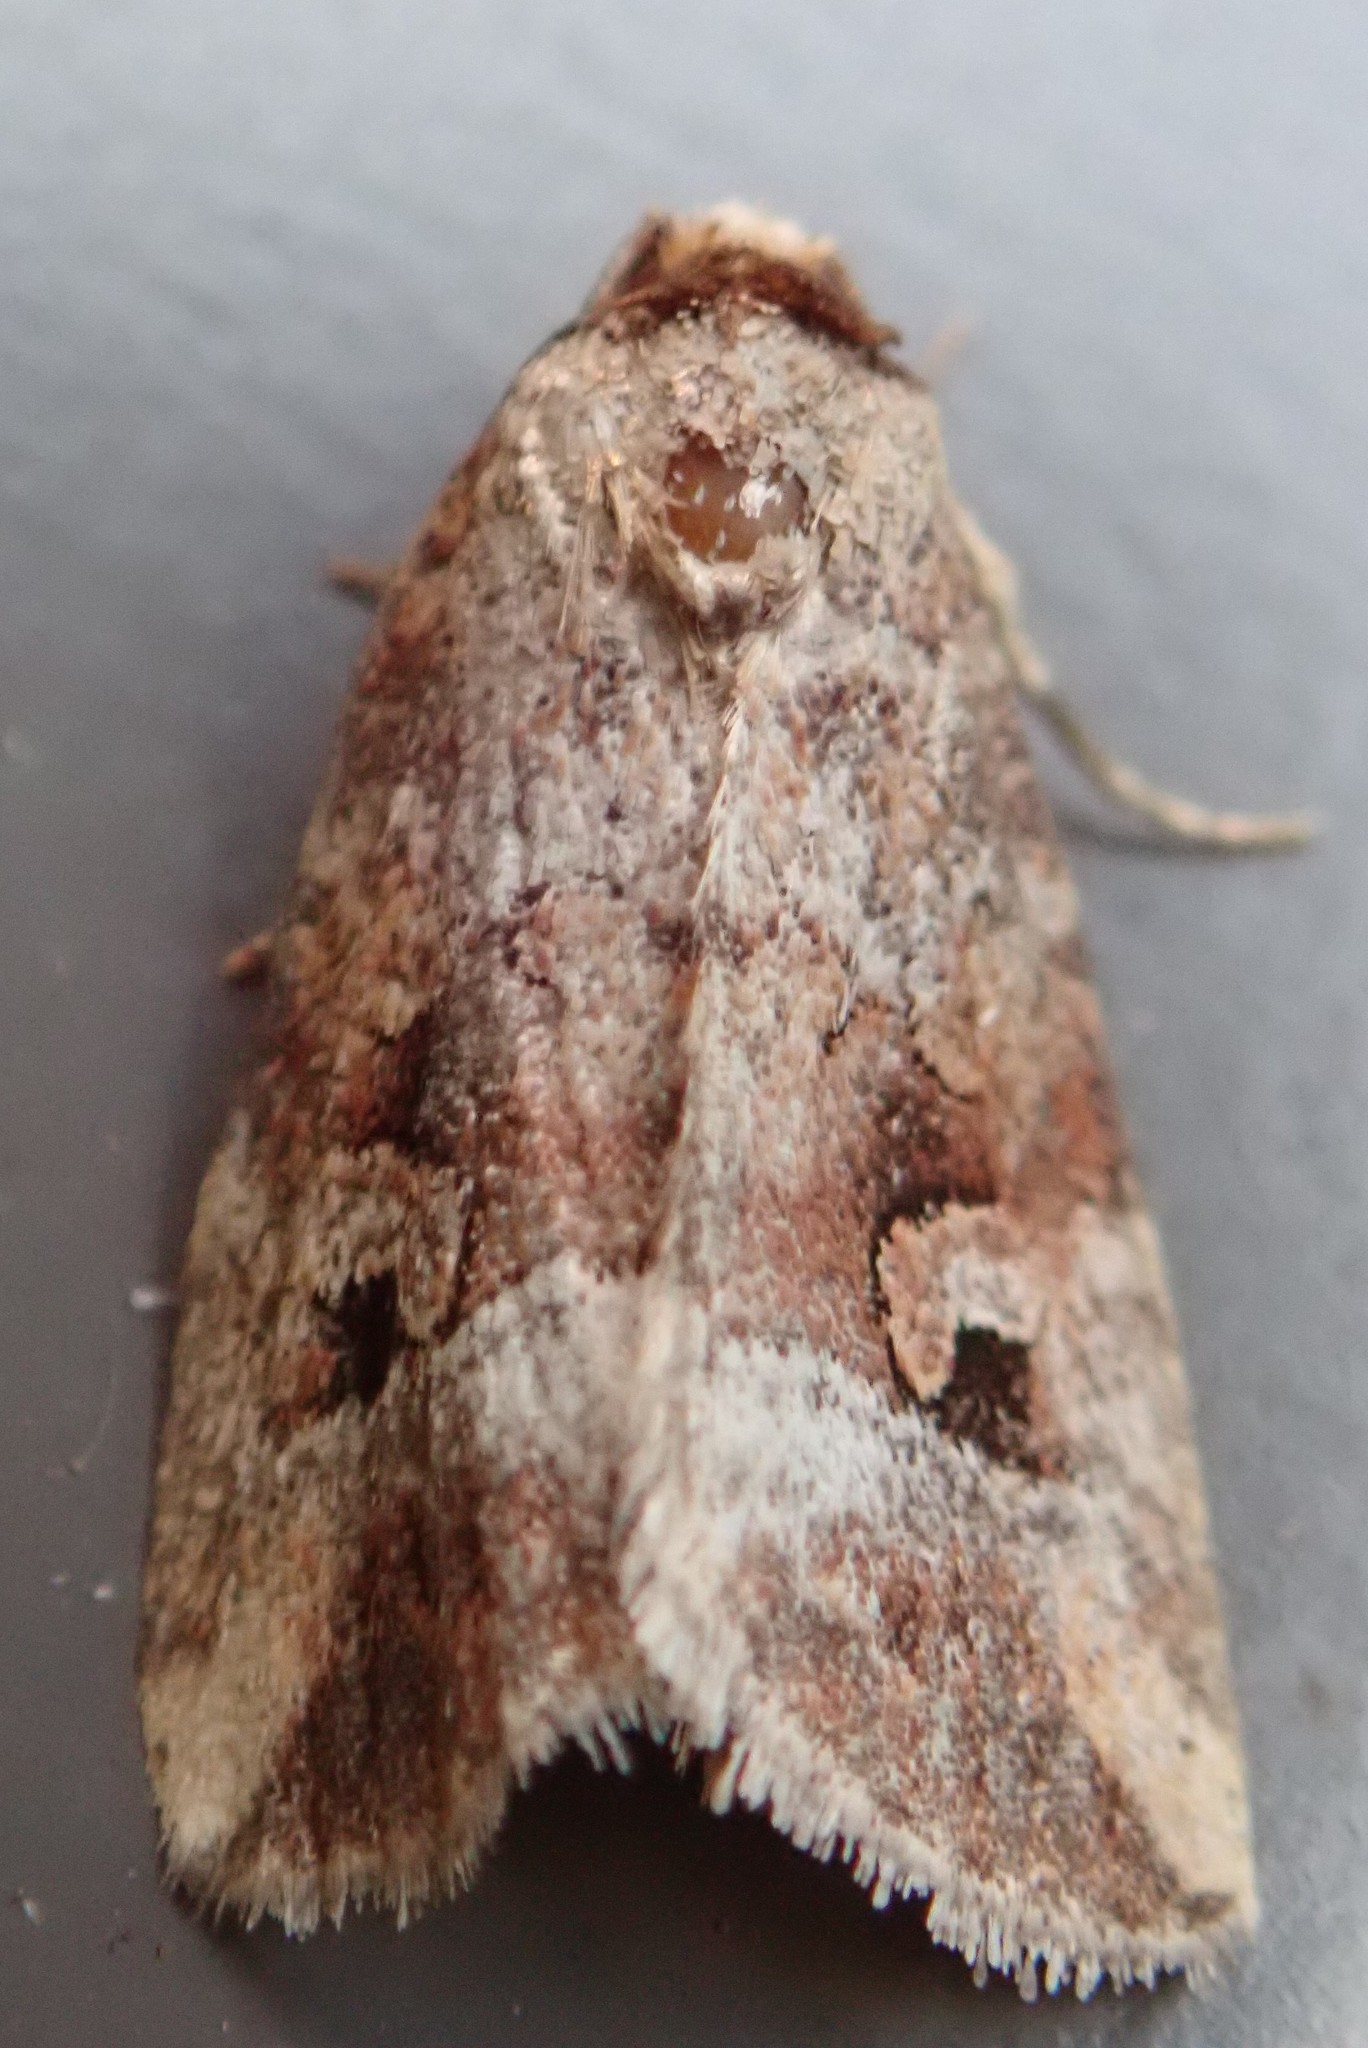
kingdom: Animalia
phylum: Arthropoda
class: Insecta
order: Lepidoptera
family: Noctuidae
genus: Elaphria
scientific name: Elaphria alapallida
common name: Pale-winged midget
